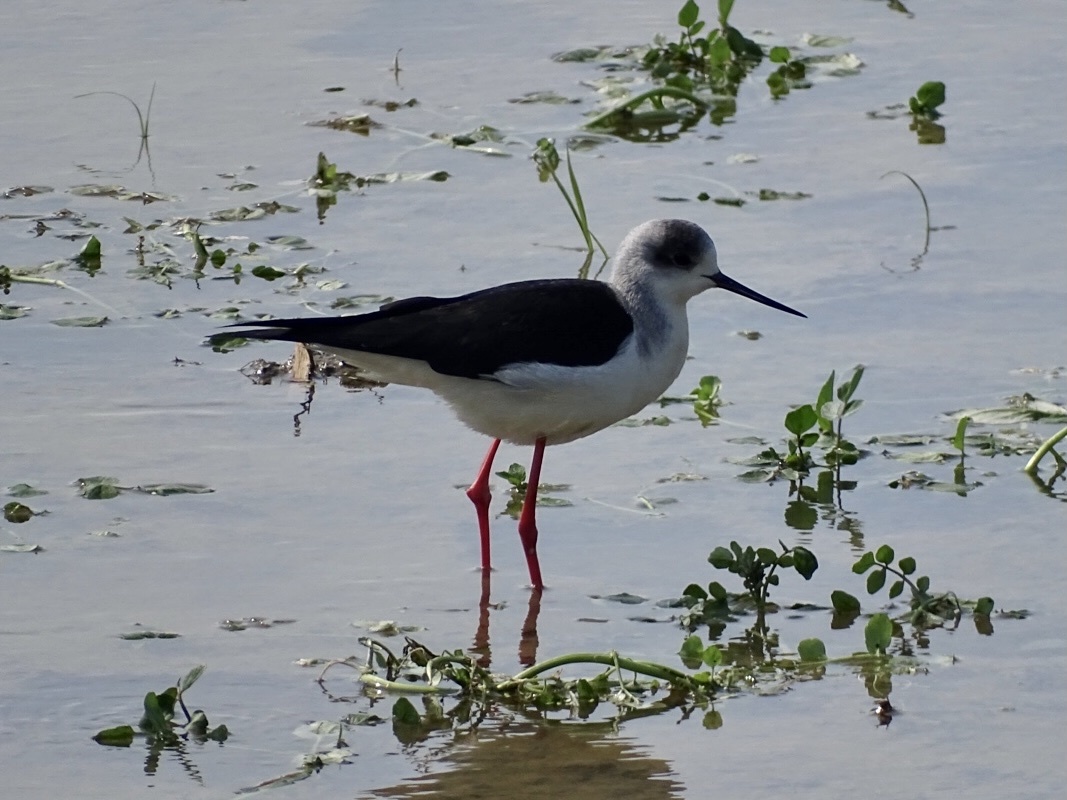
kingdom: Animalia
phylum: Chordata
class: Aves
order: Charadriiformes
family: Recurvirostridae
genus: Himantopus
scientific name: Himantopus himantopus
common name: Black-winged stilt
